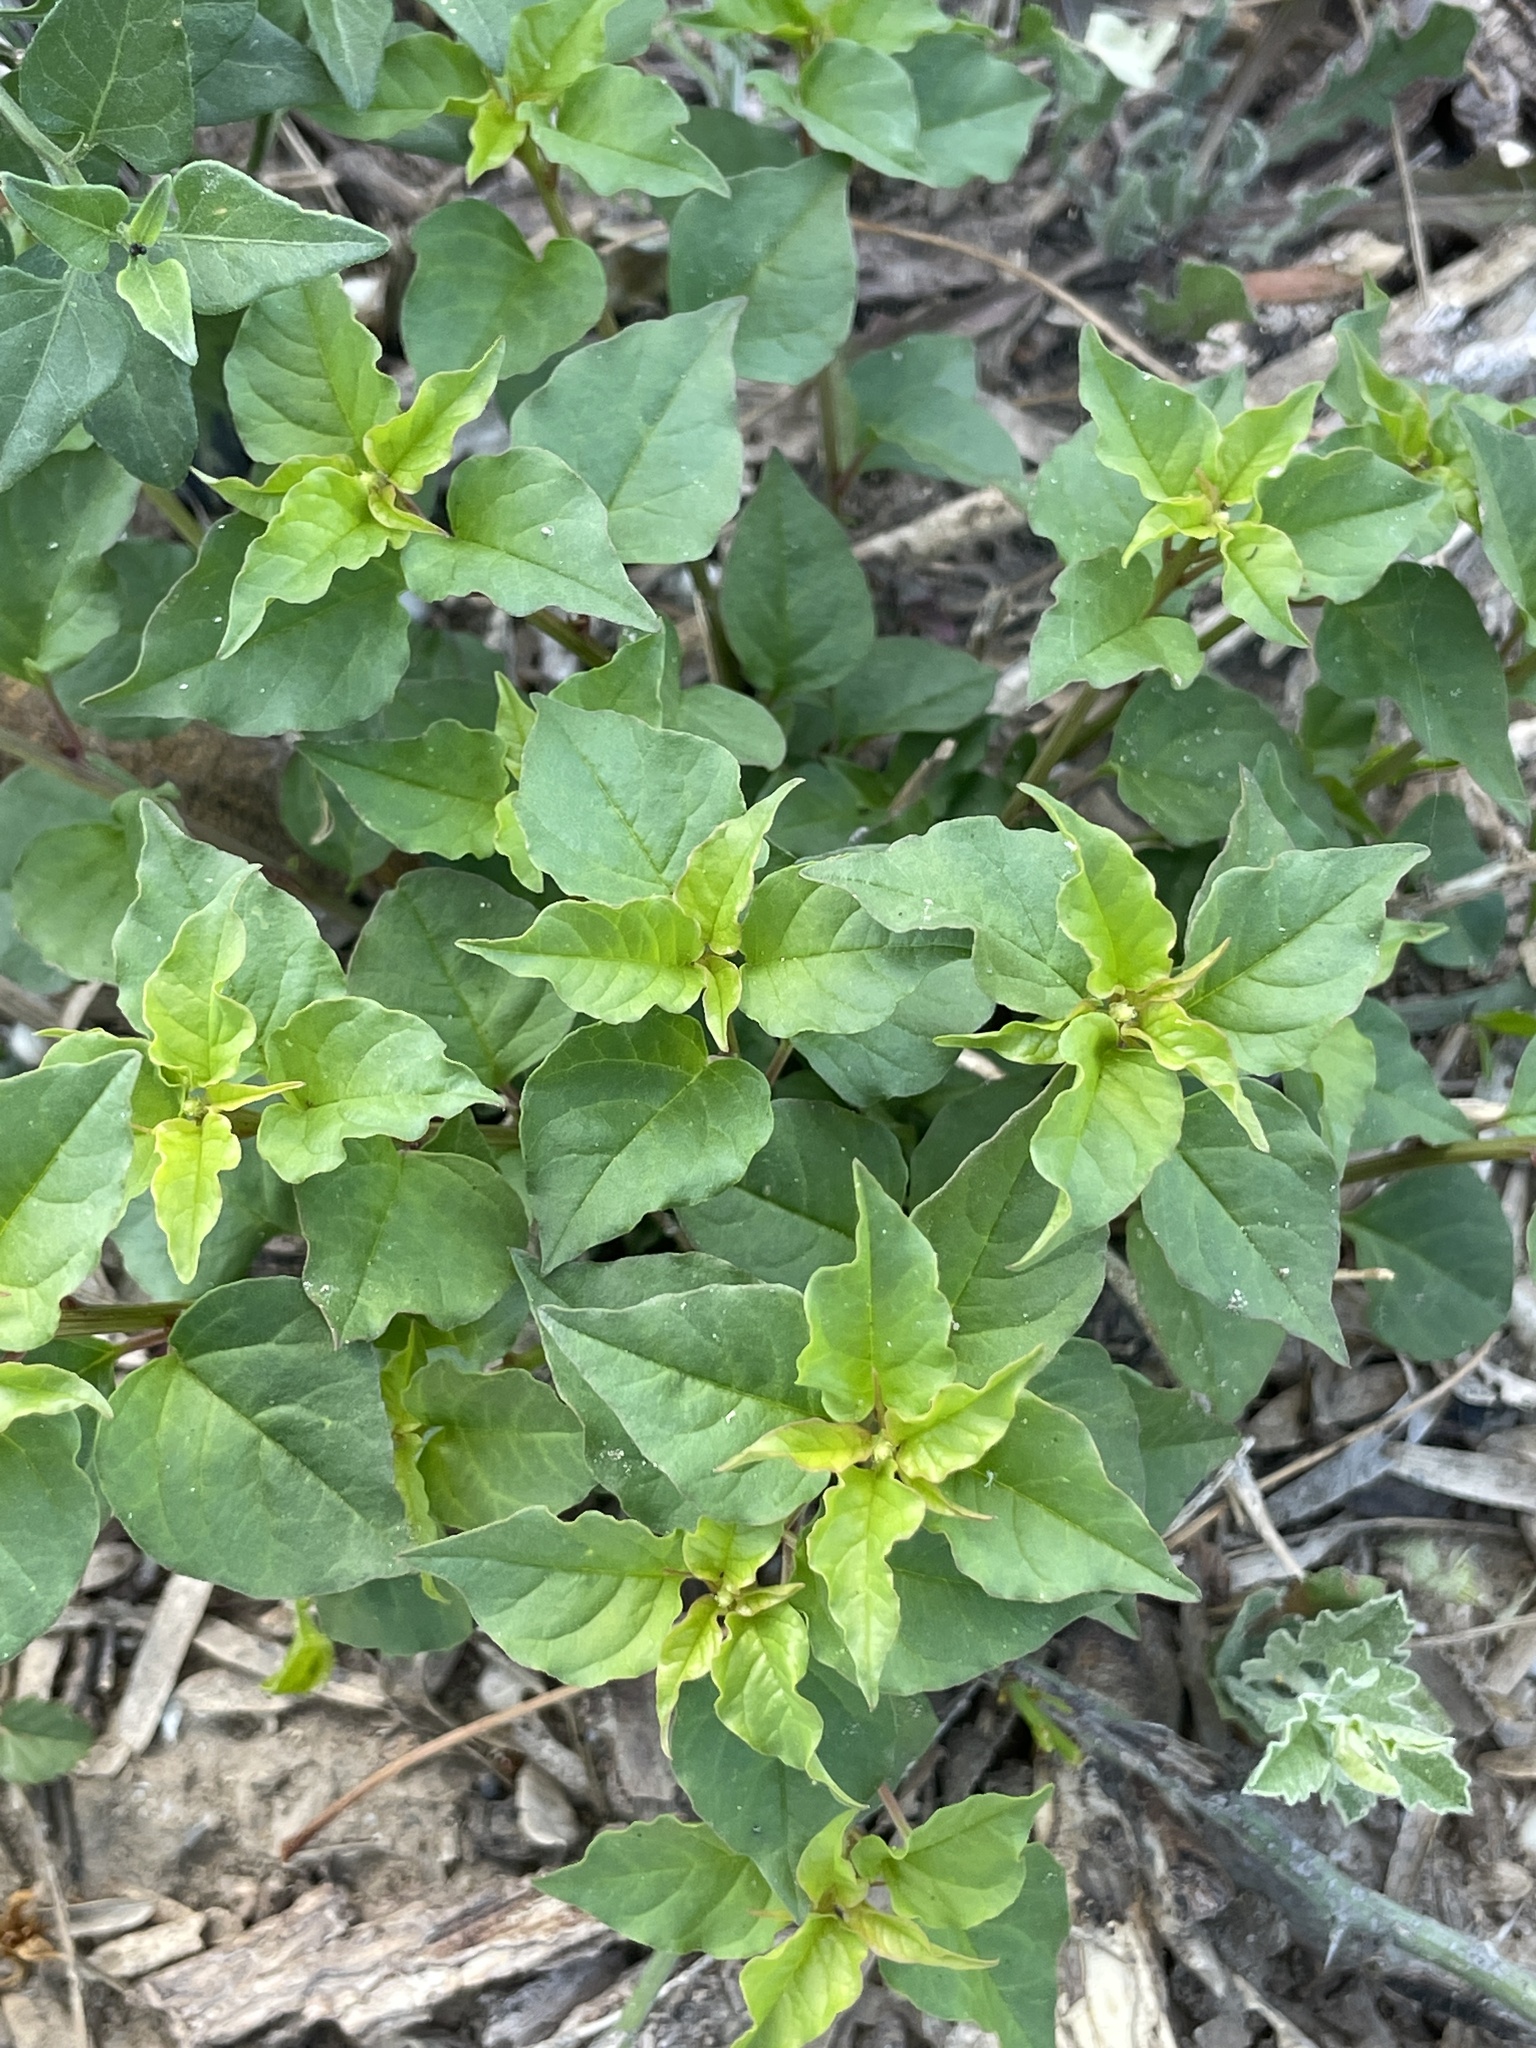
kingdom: Plantae
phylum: Tracheophyta
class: Magnoliopsida
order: Caryophyllales
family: Phytolaccaceae
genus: Rivina
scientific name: Rivina humilis
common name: Rougeplant
